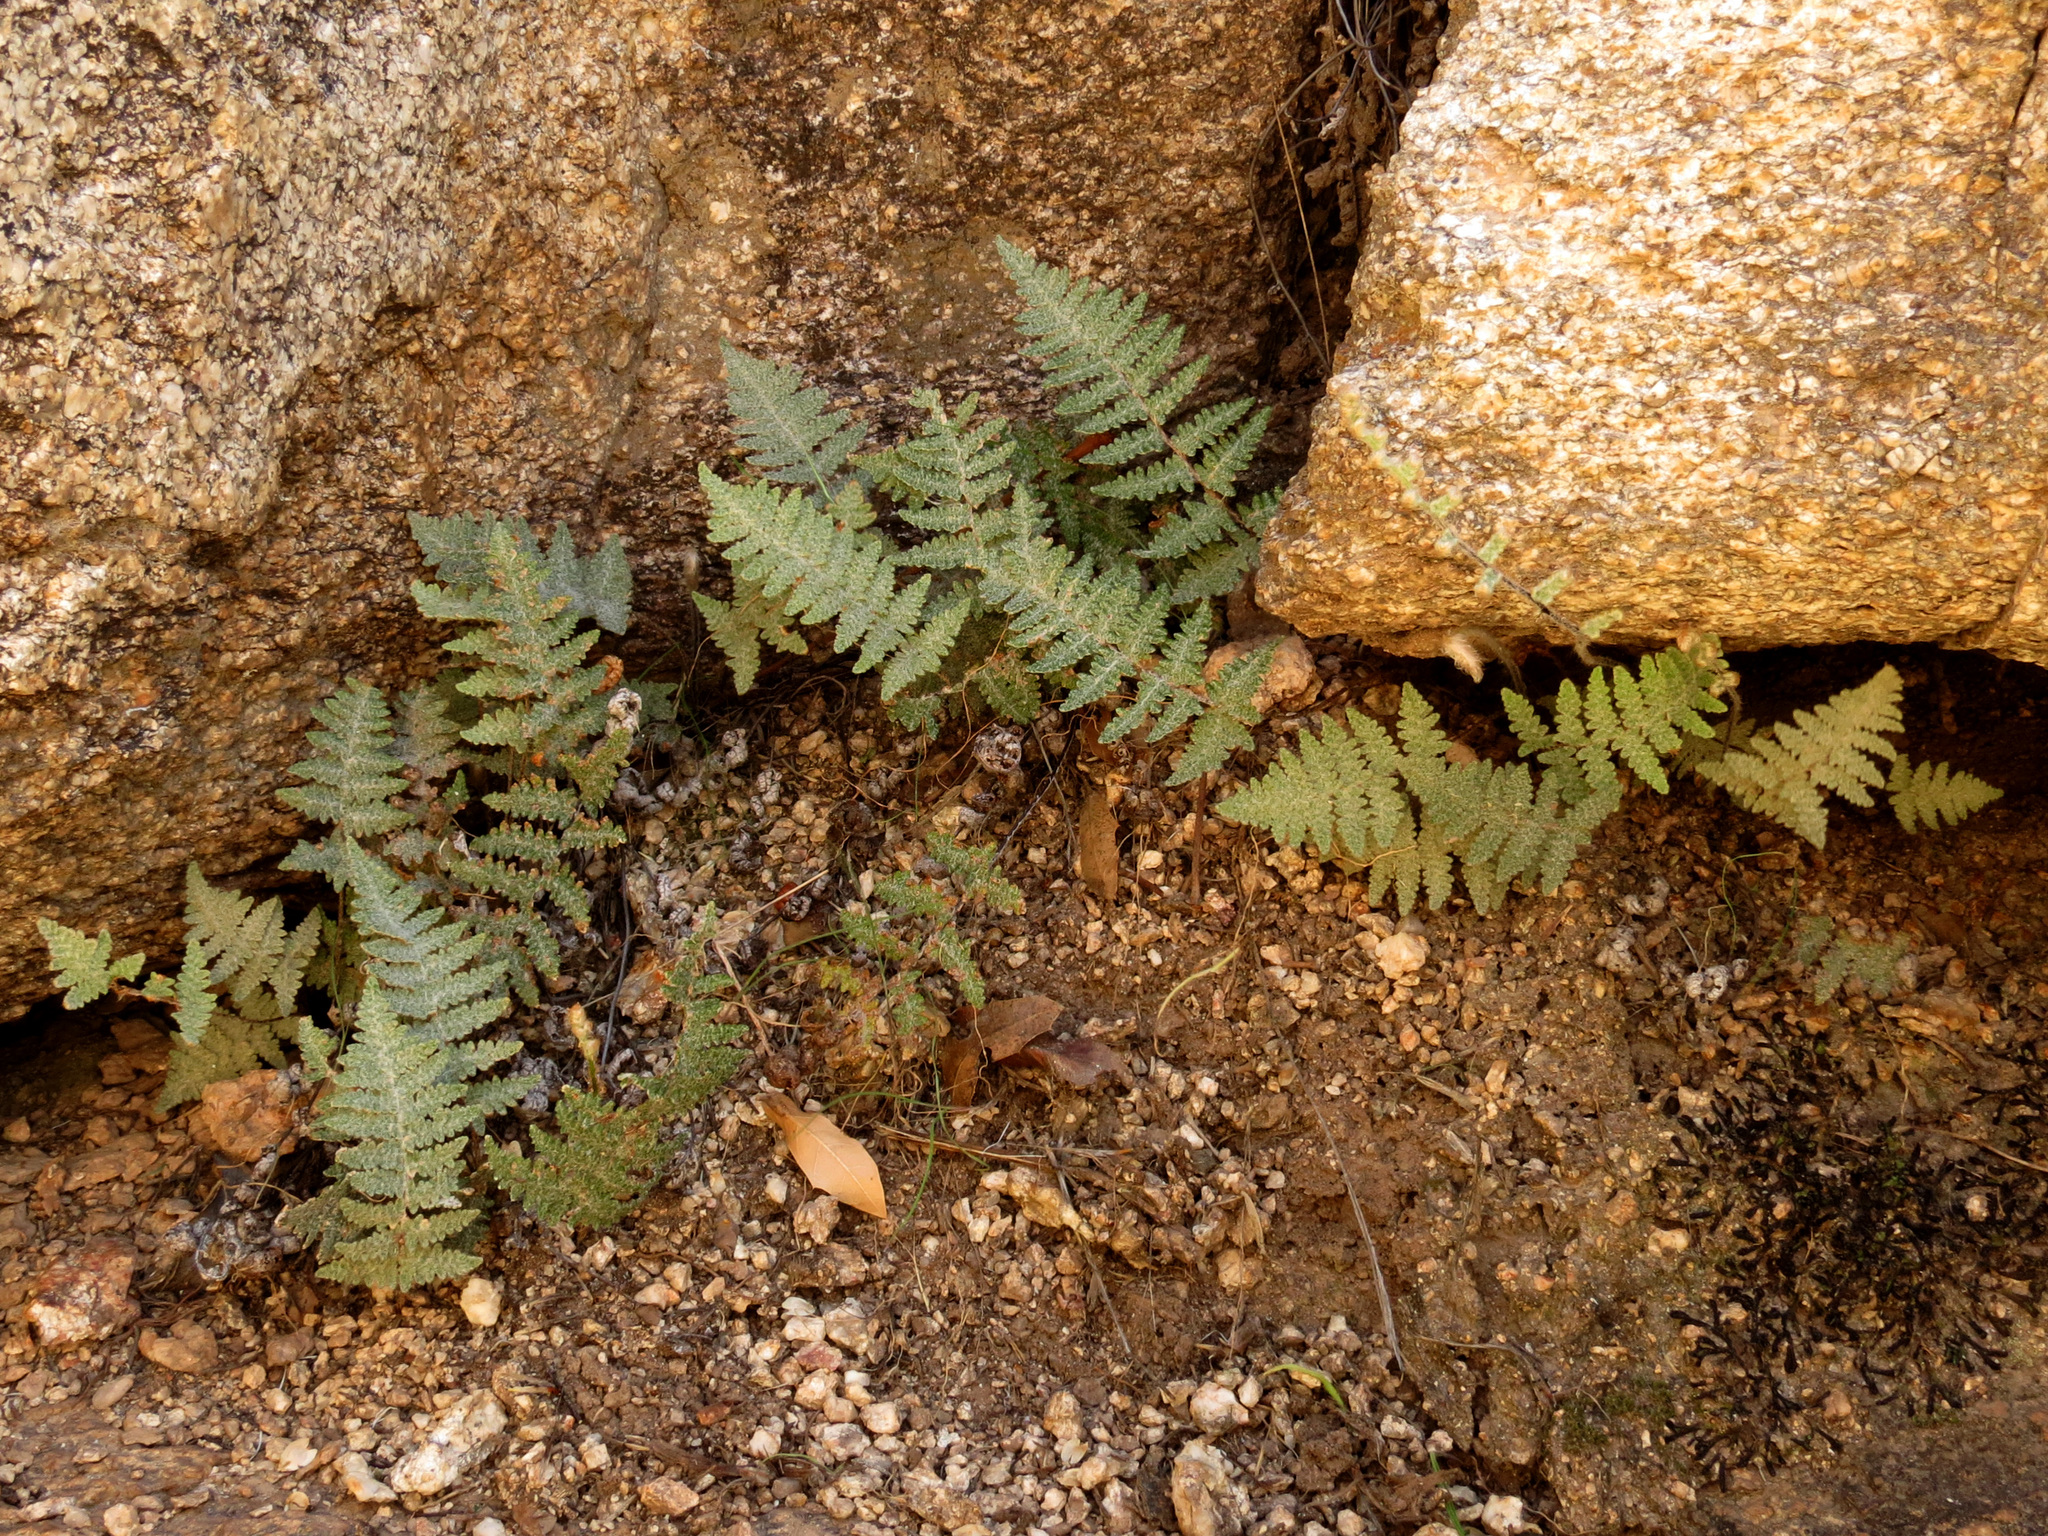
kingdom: Plantae
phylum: Tracheophyta
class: Polypodiopsida
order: Polypodiales
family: Pteridaceae
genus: Myriopteris
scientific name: Myriopteris lindheimeri
